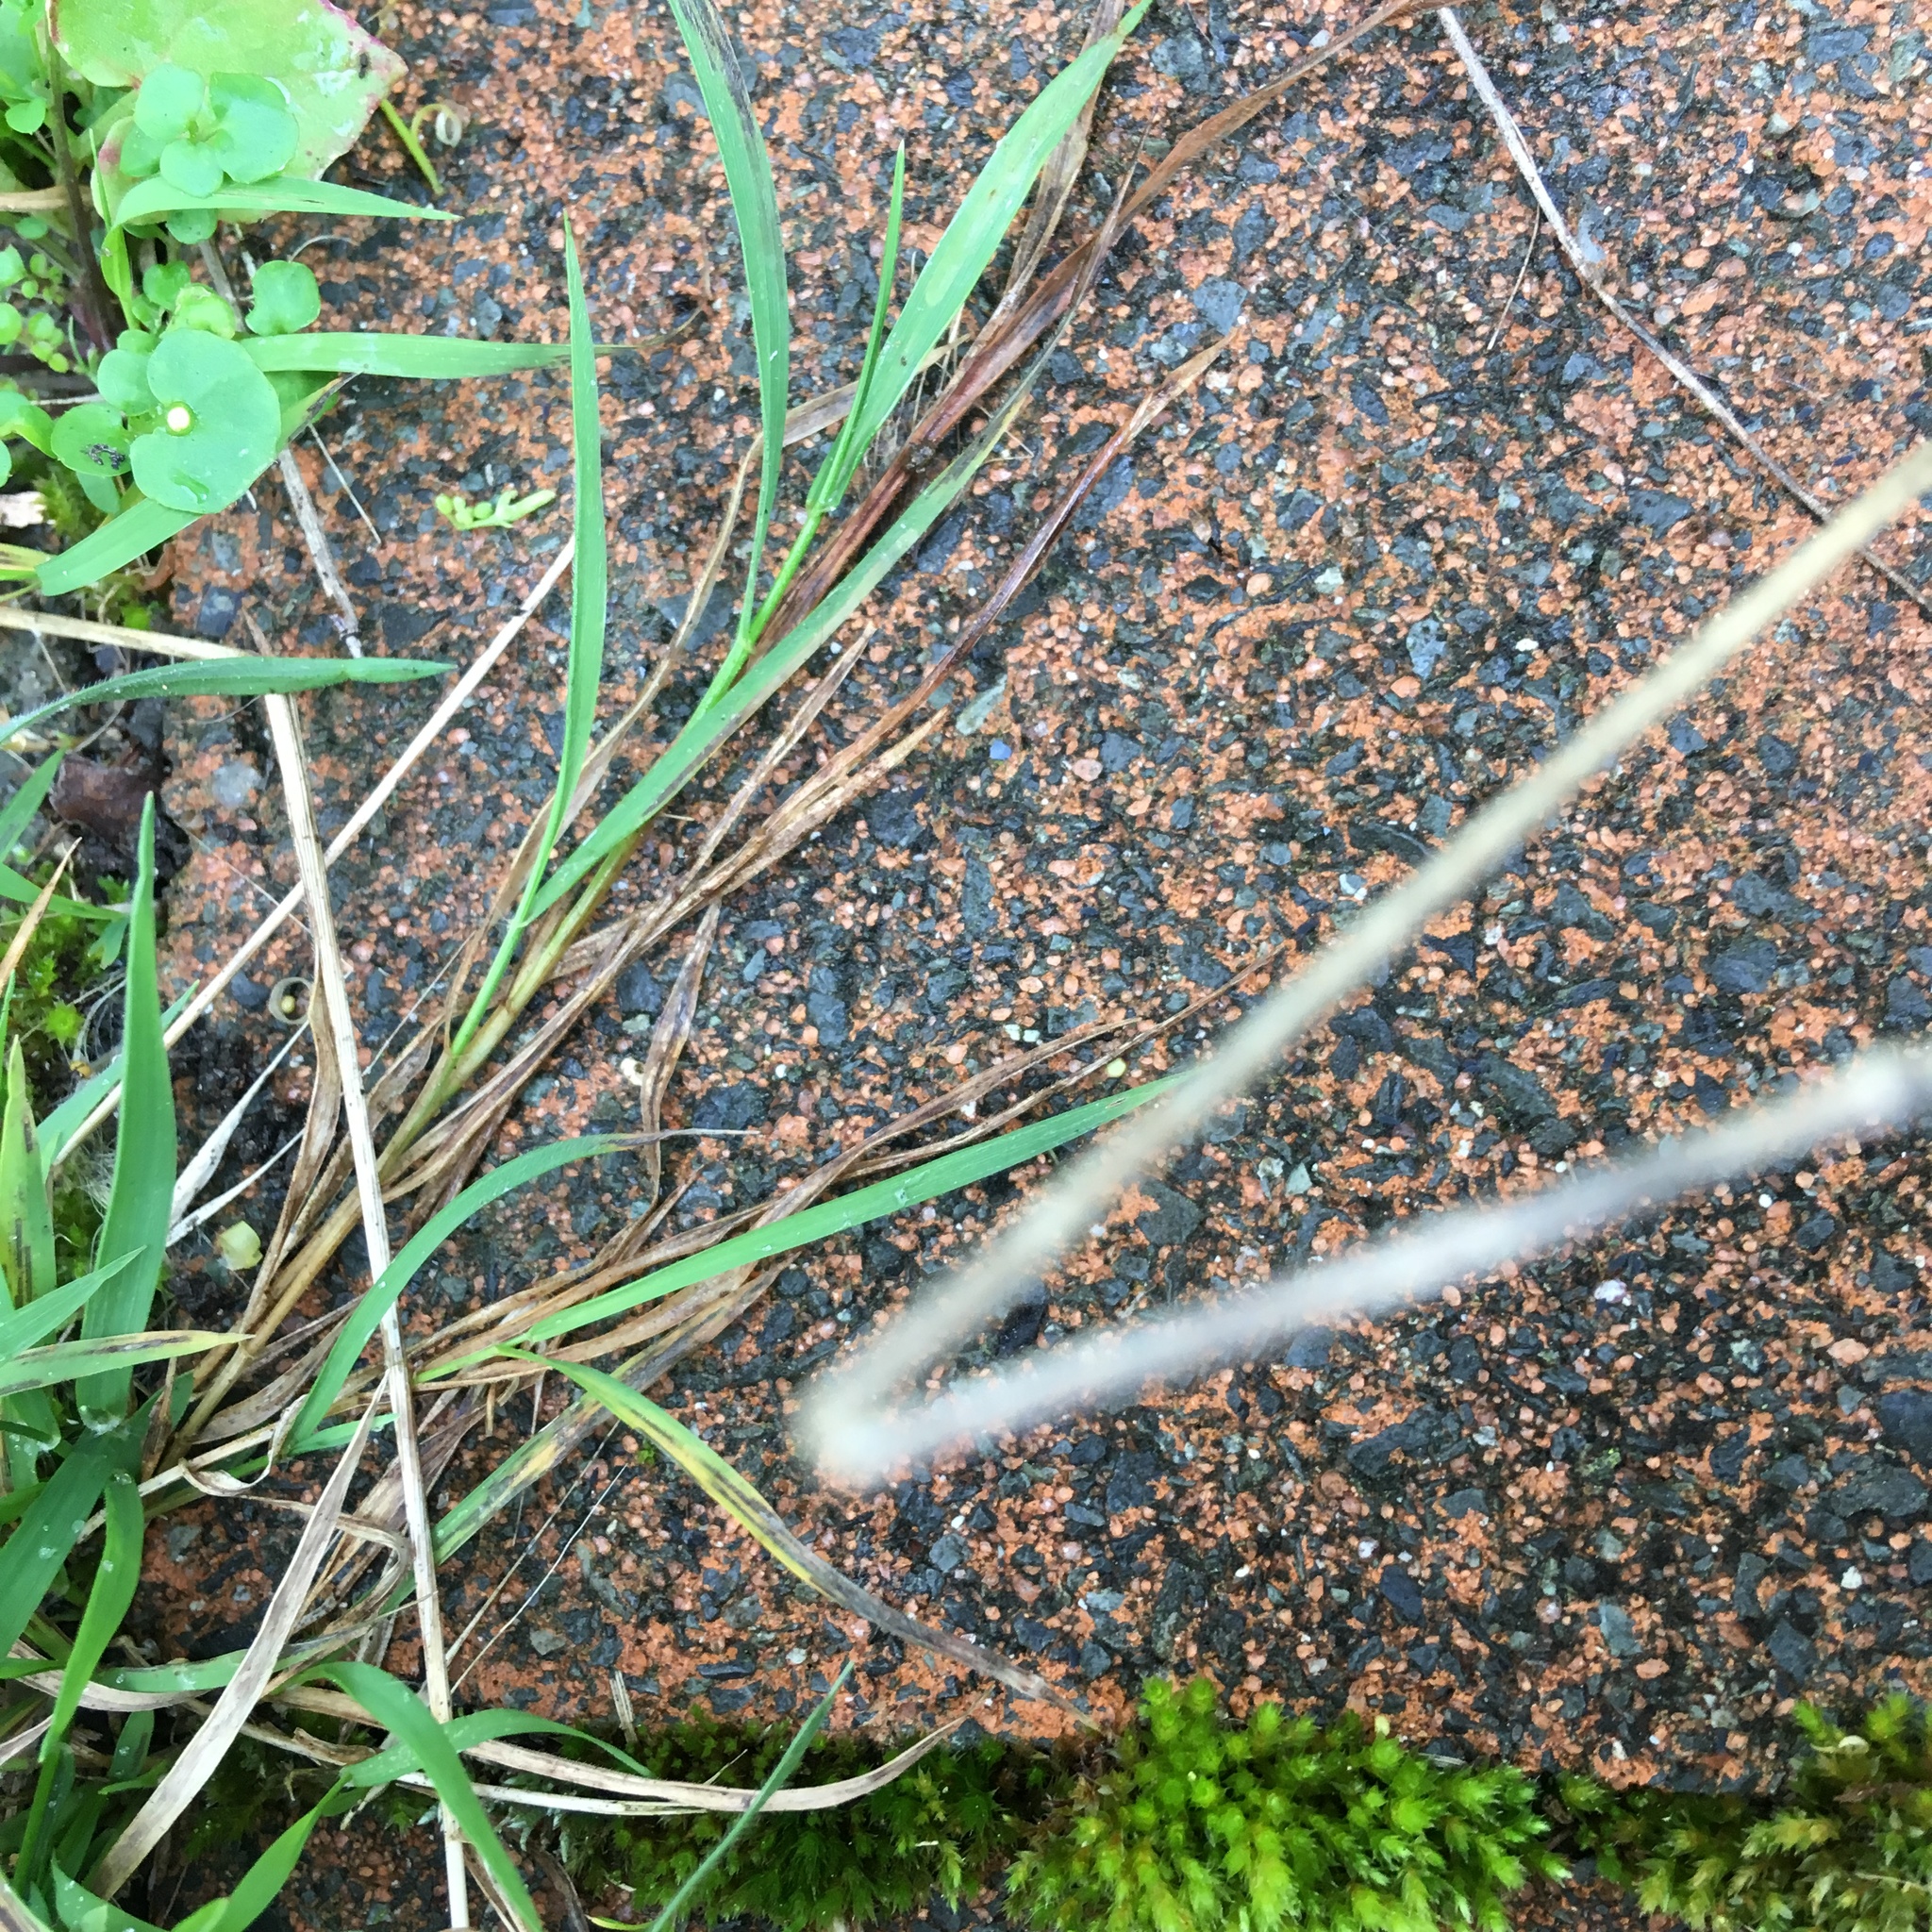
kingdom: Plantae
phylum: Tracheophyta
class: Liliopsida
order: Poales
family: Poaceae
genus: Ehrharta
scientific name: Ehrharta erecta
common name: Panic veldtgrass
